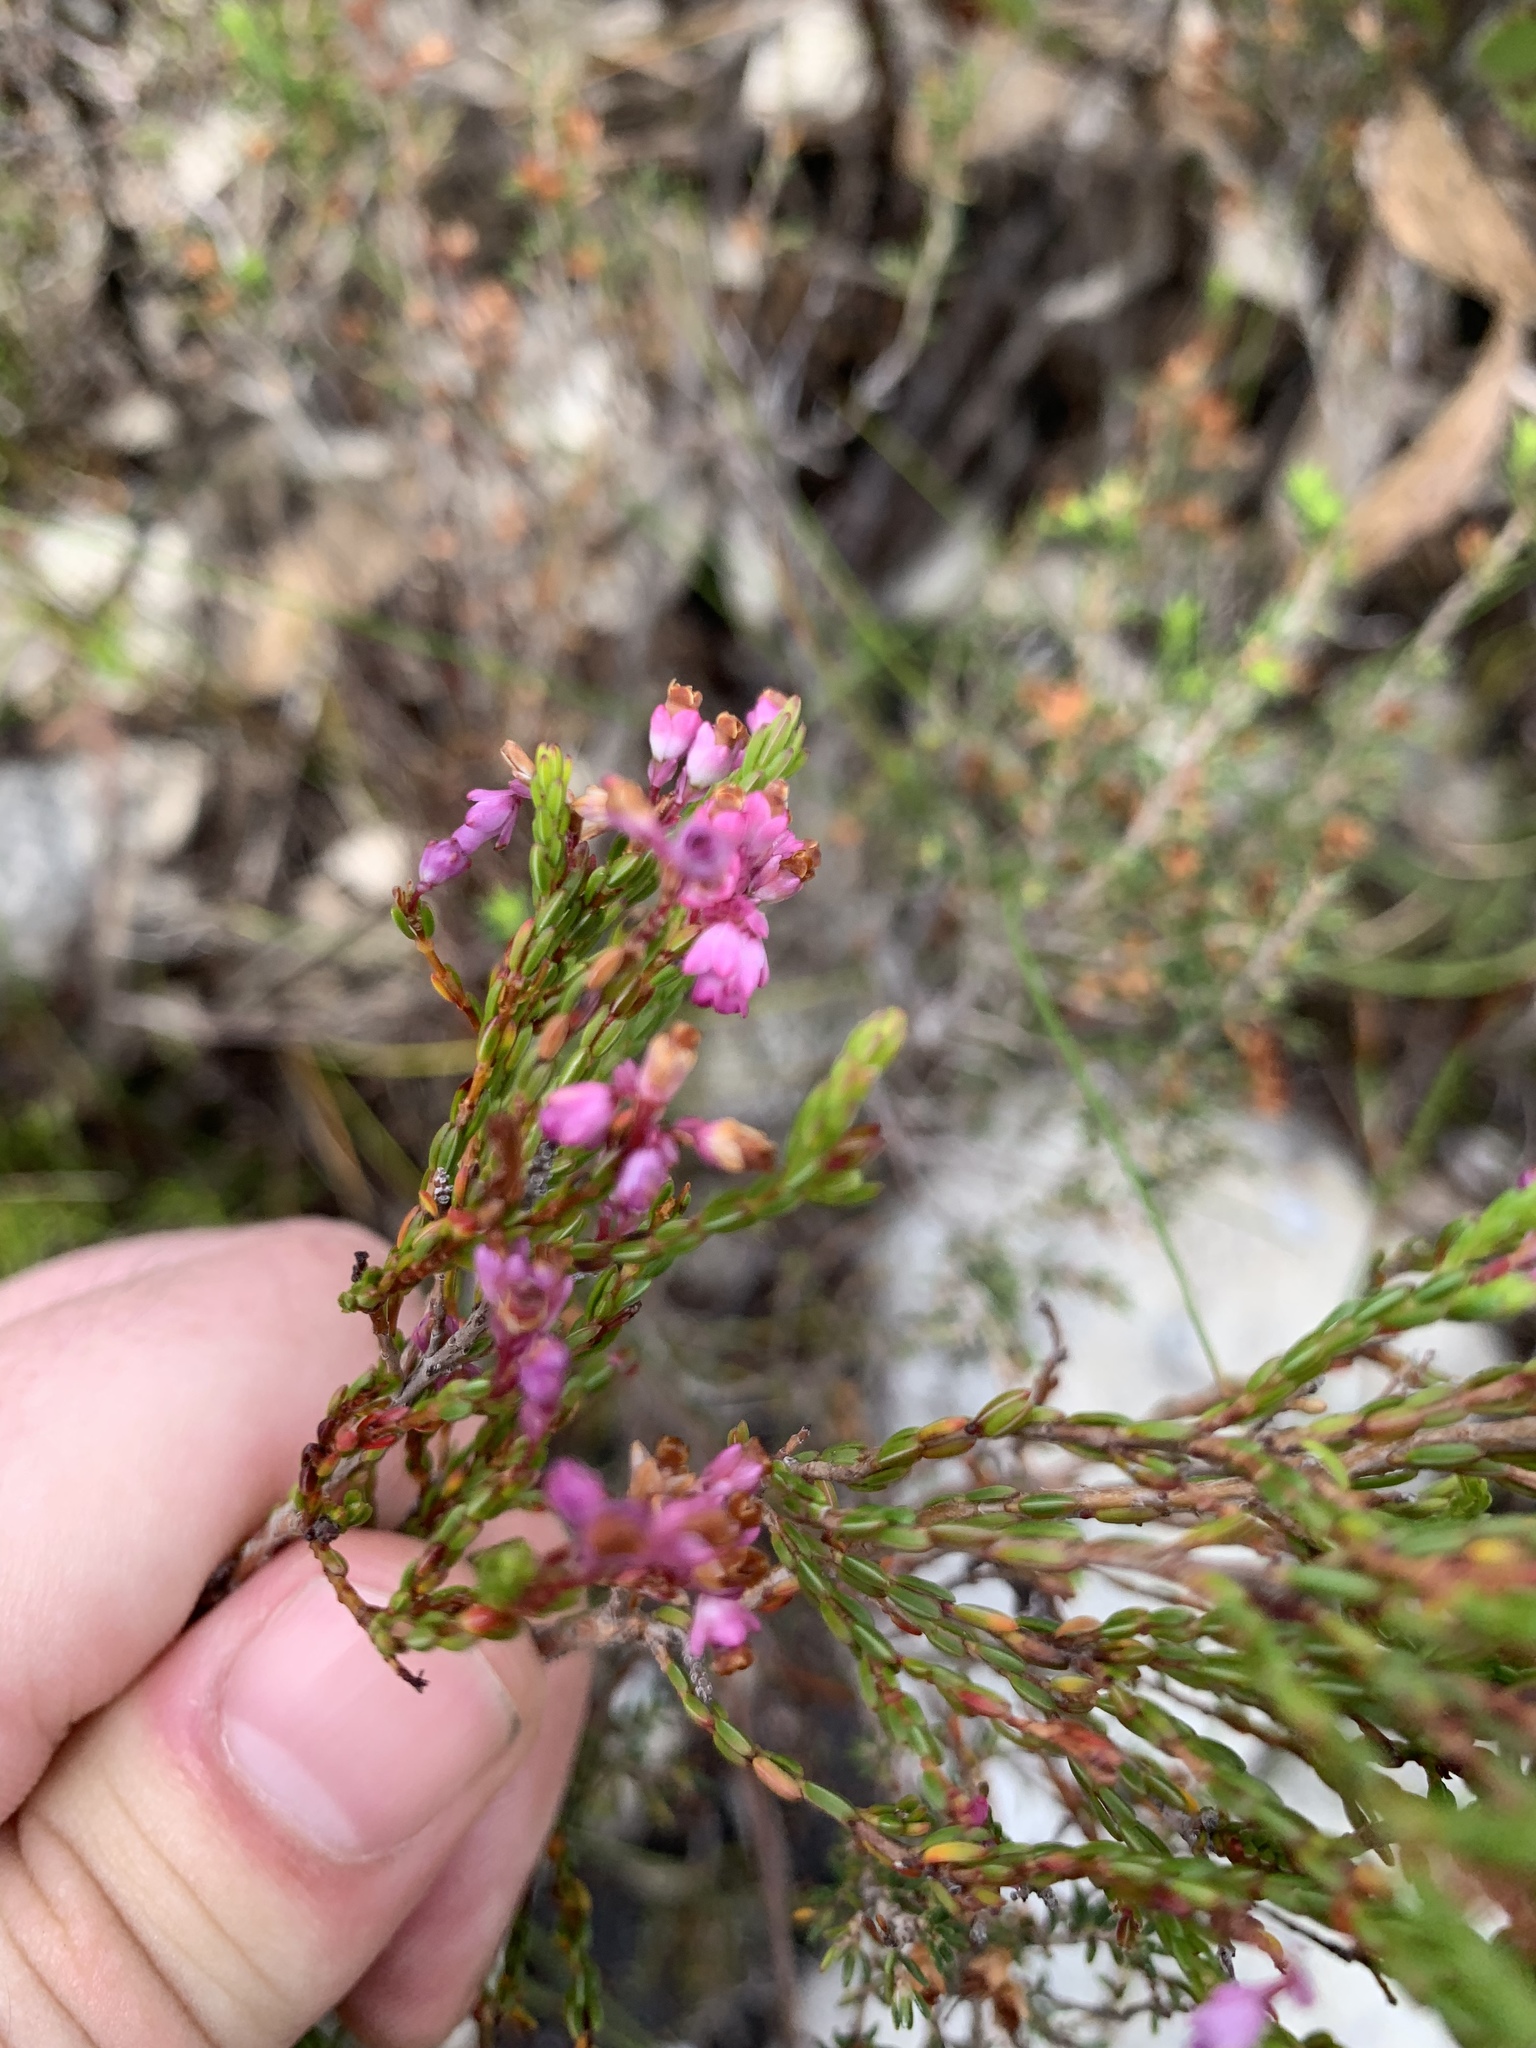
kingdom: Plantae
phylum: Tracheophyta
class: Magnoliopsida
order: Ericales
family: Ericaceae
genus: Erica
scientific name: Erica corifolia
